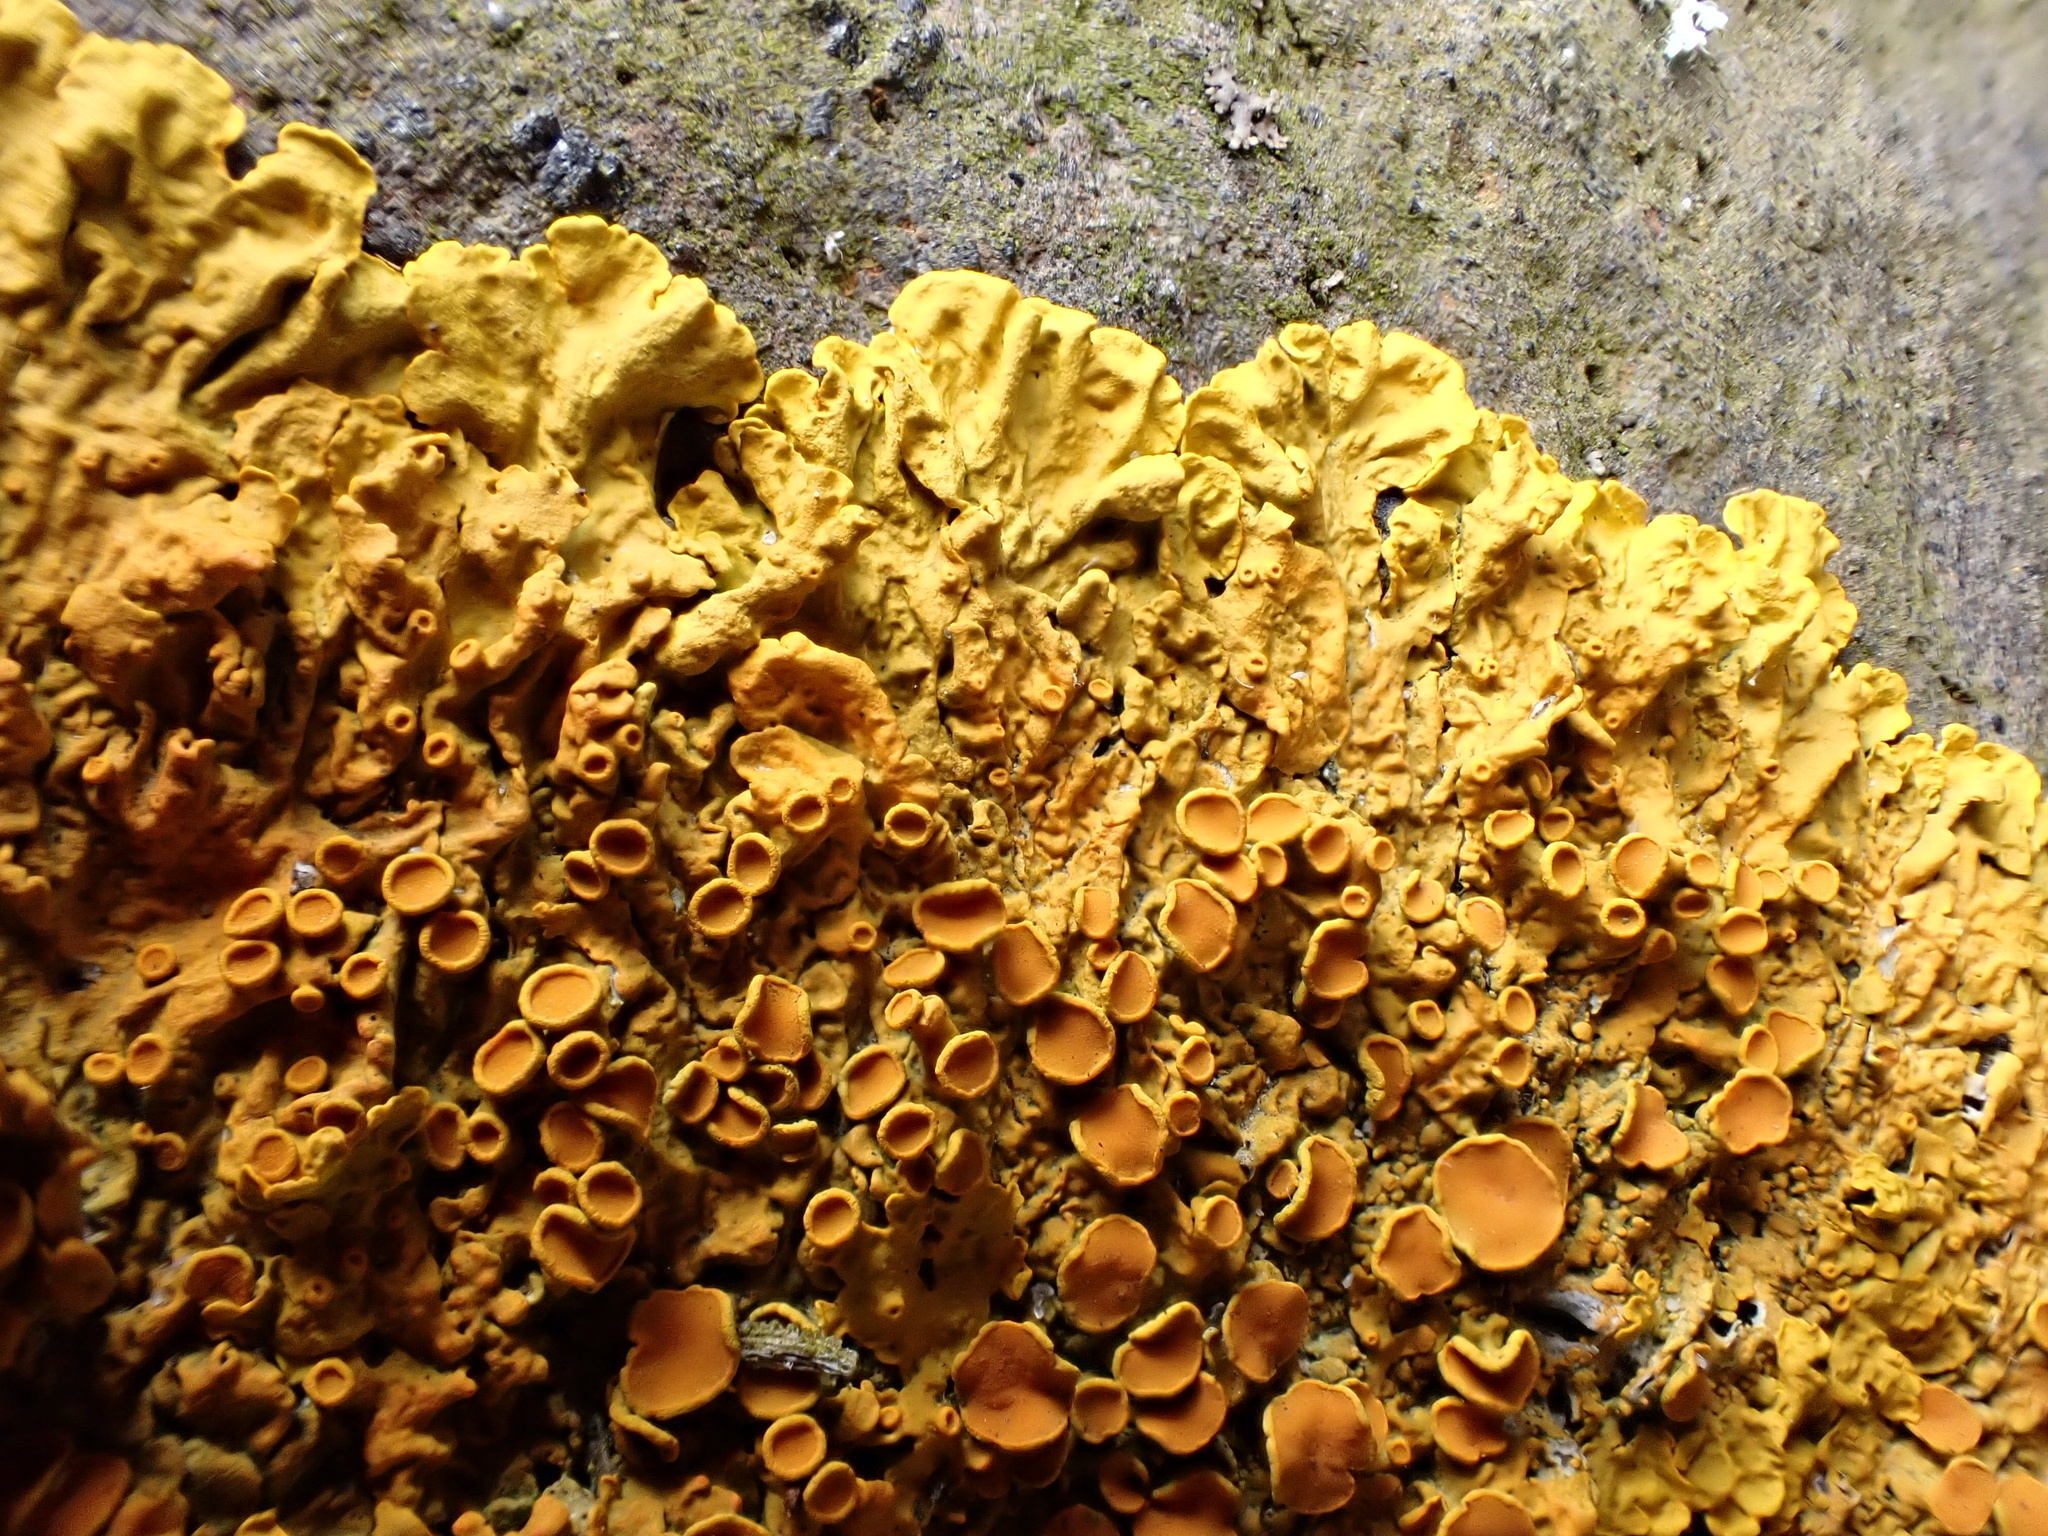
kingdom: Fungi
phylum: Ascomycota
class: Lecanoromycetes
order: Teloschistales
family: Teloschistaceae
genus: Xanthoria
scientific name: Xanthoria parietina
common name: Common orange lichen
